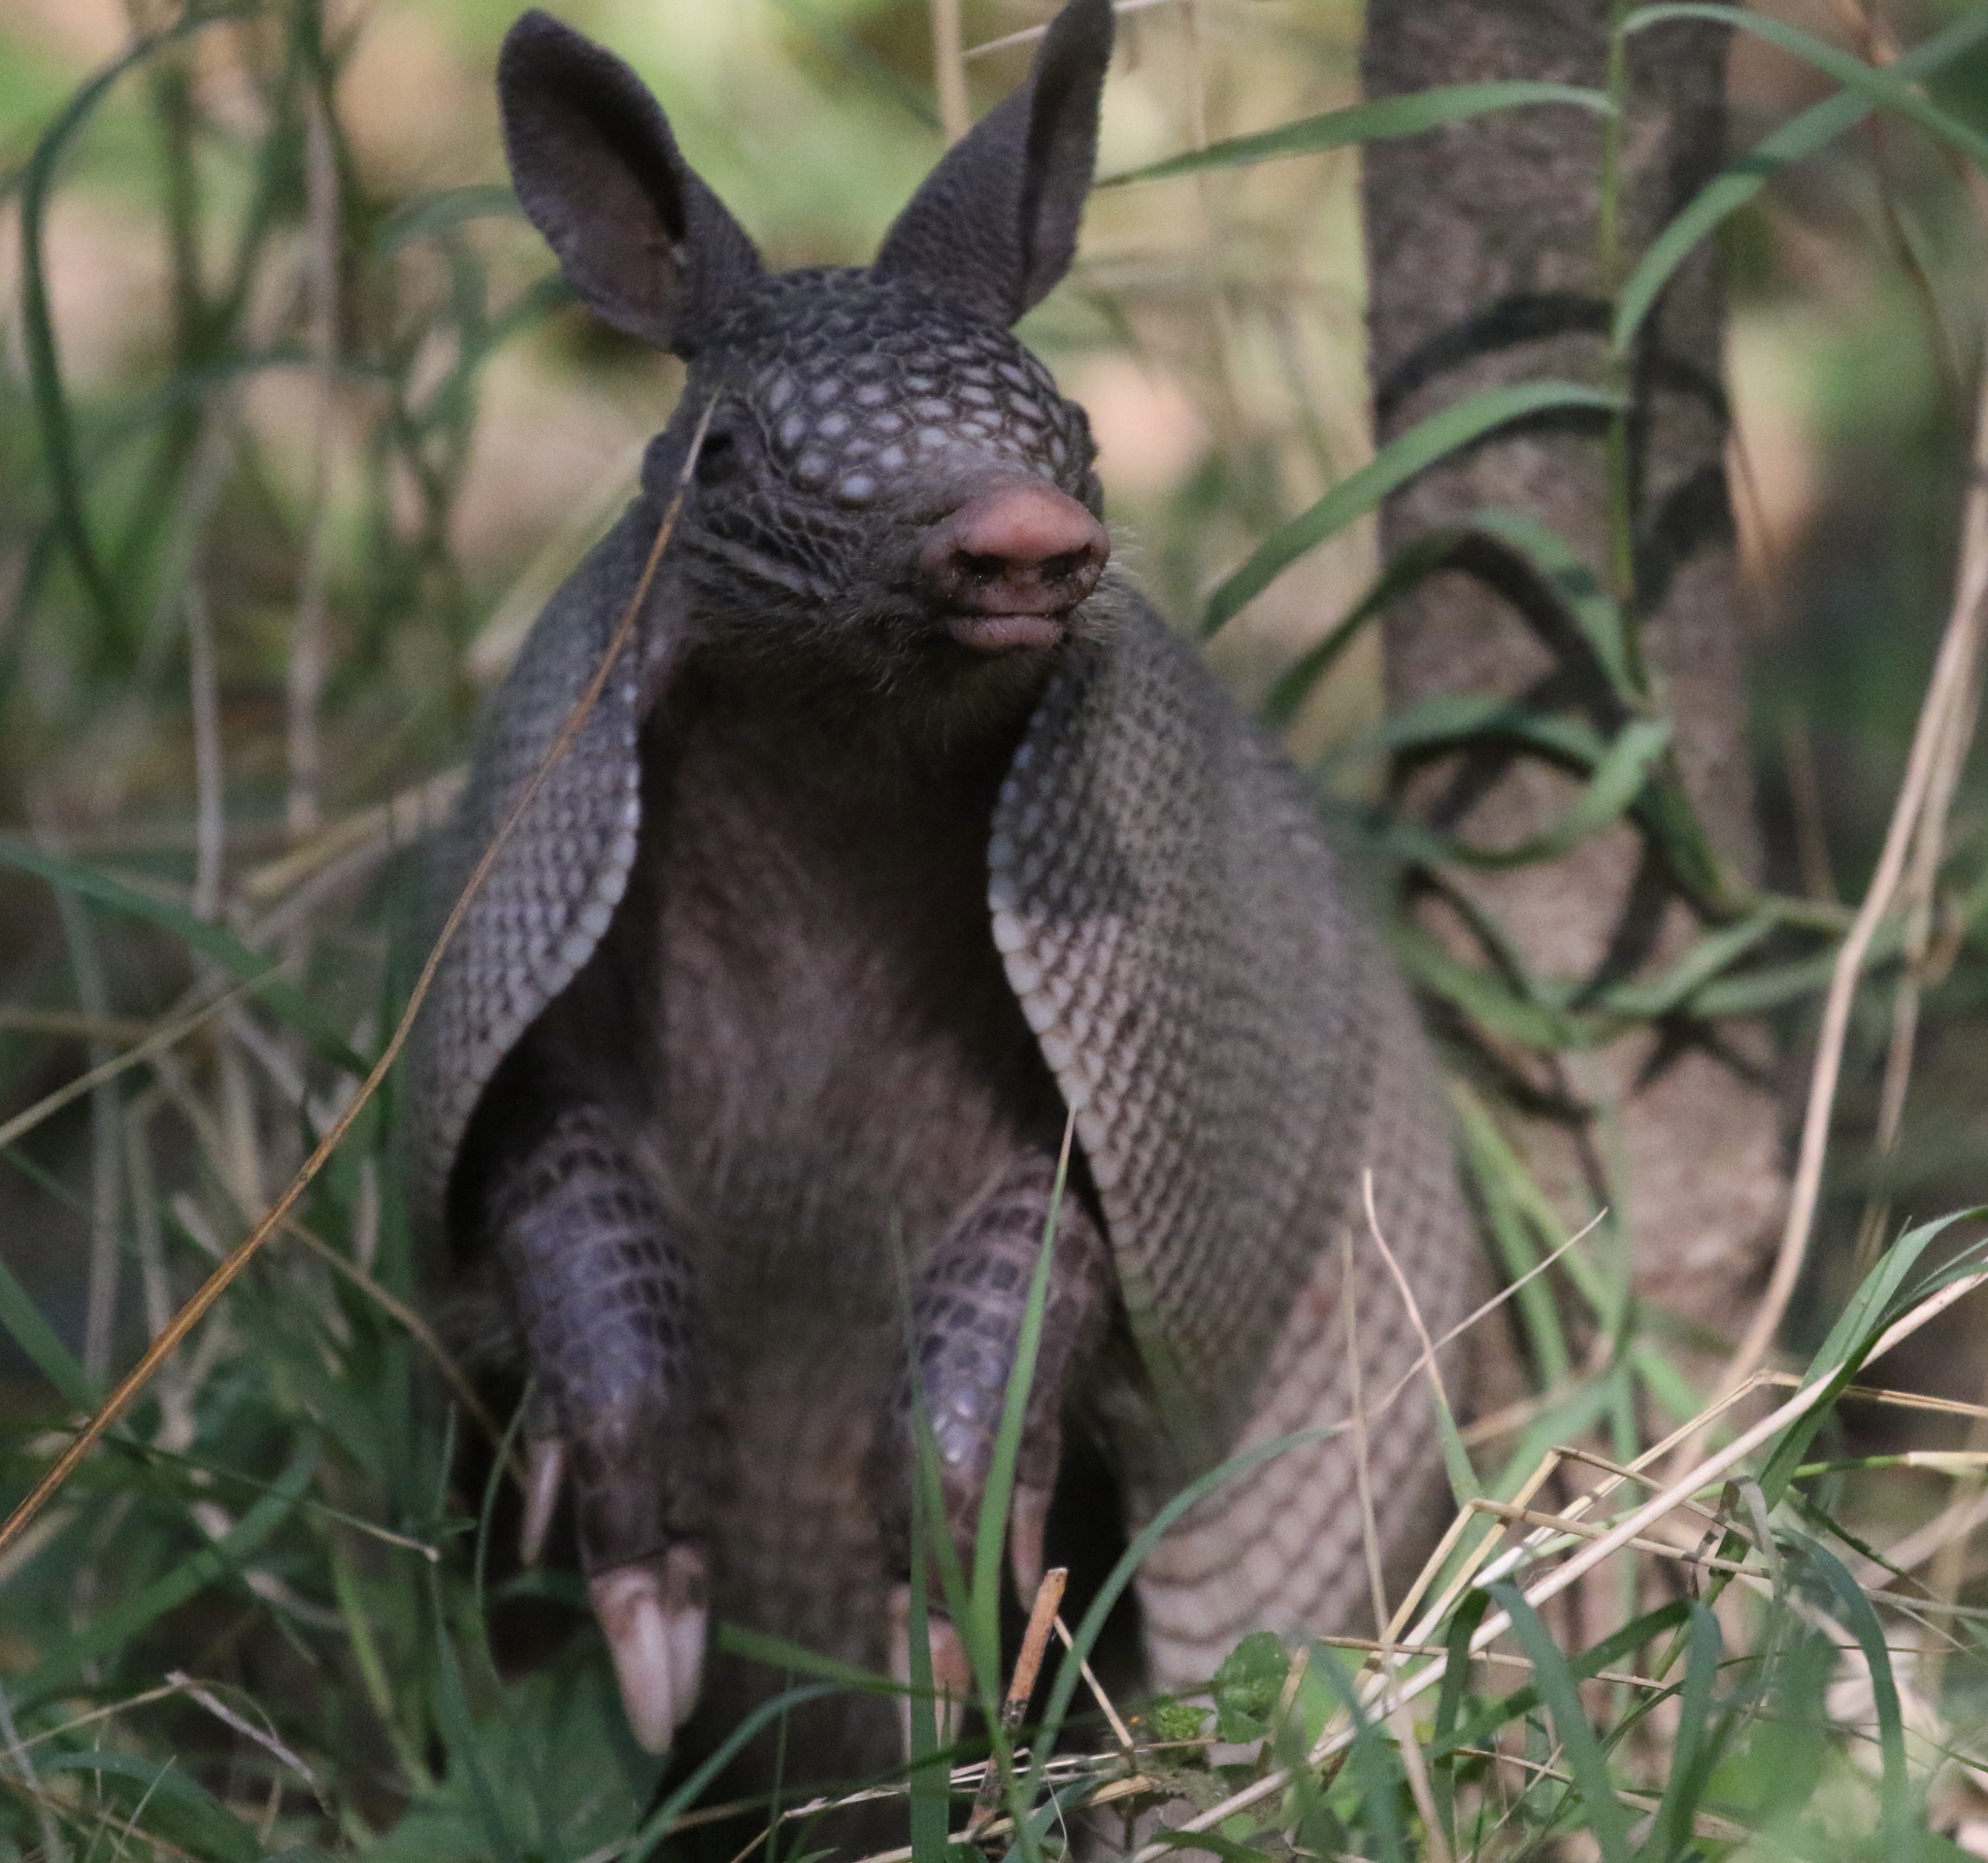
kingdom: Animalia
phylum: Chordata
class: Mammalia
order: Cingulata
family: Dasypodidae
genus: Dasypus
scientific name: Dasypus novemcinctus
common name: Nine-banded armadillo
